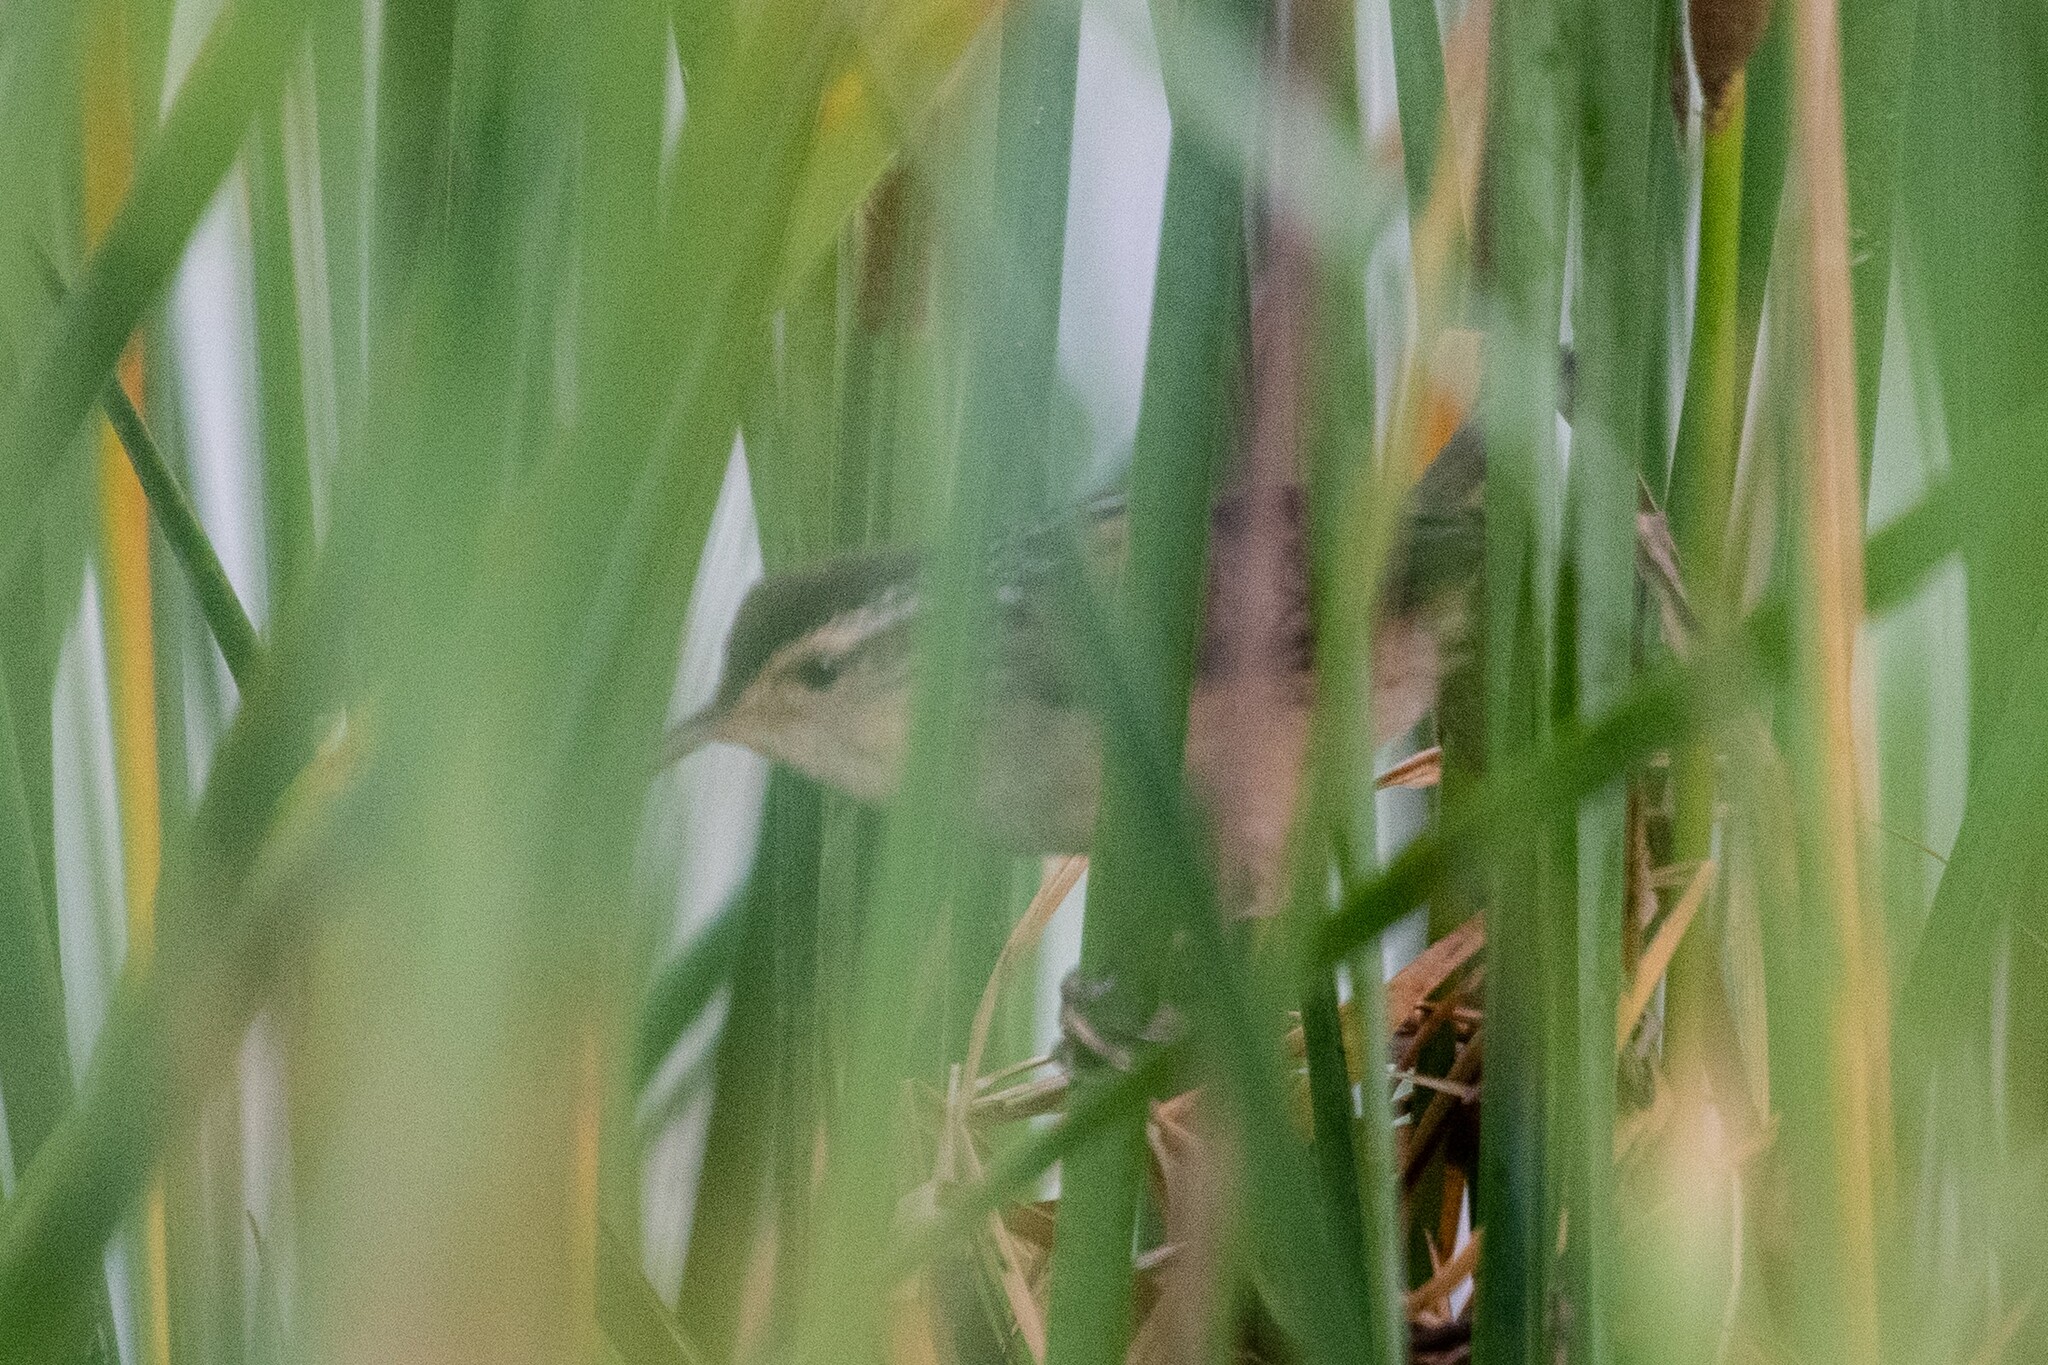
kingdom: Animalia
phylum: Chordata
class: Aves
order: Passeriformes
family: Troglodytidae
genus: Cistothorus
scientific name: Cistothorus palustris
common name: Marsh wren
